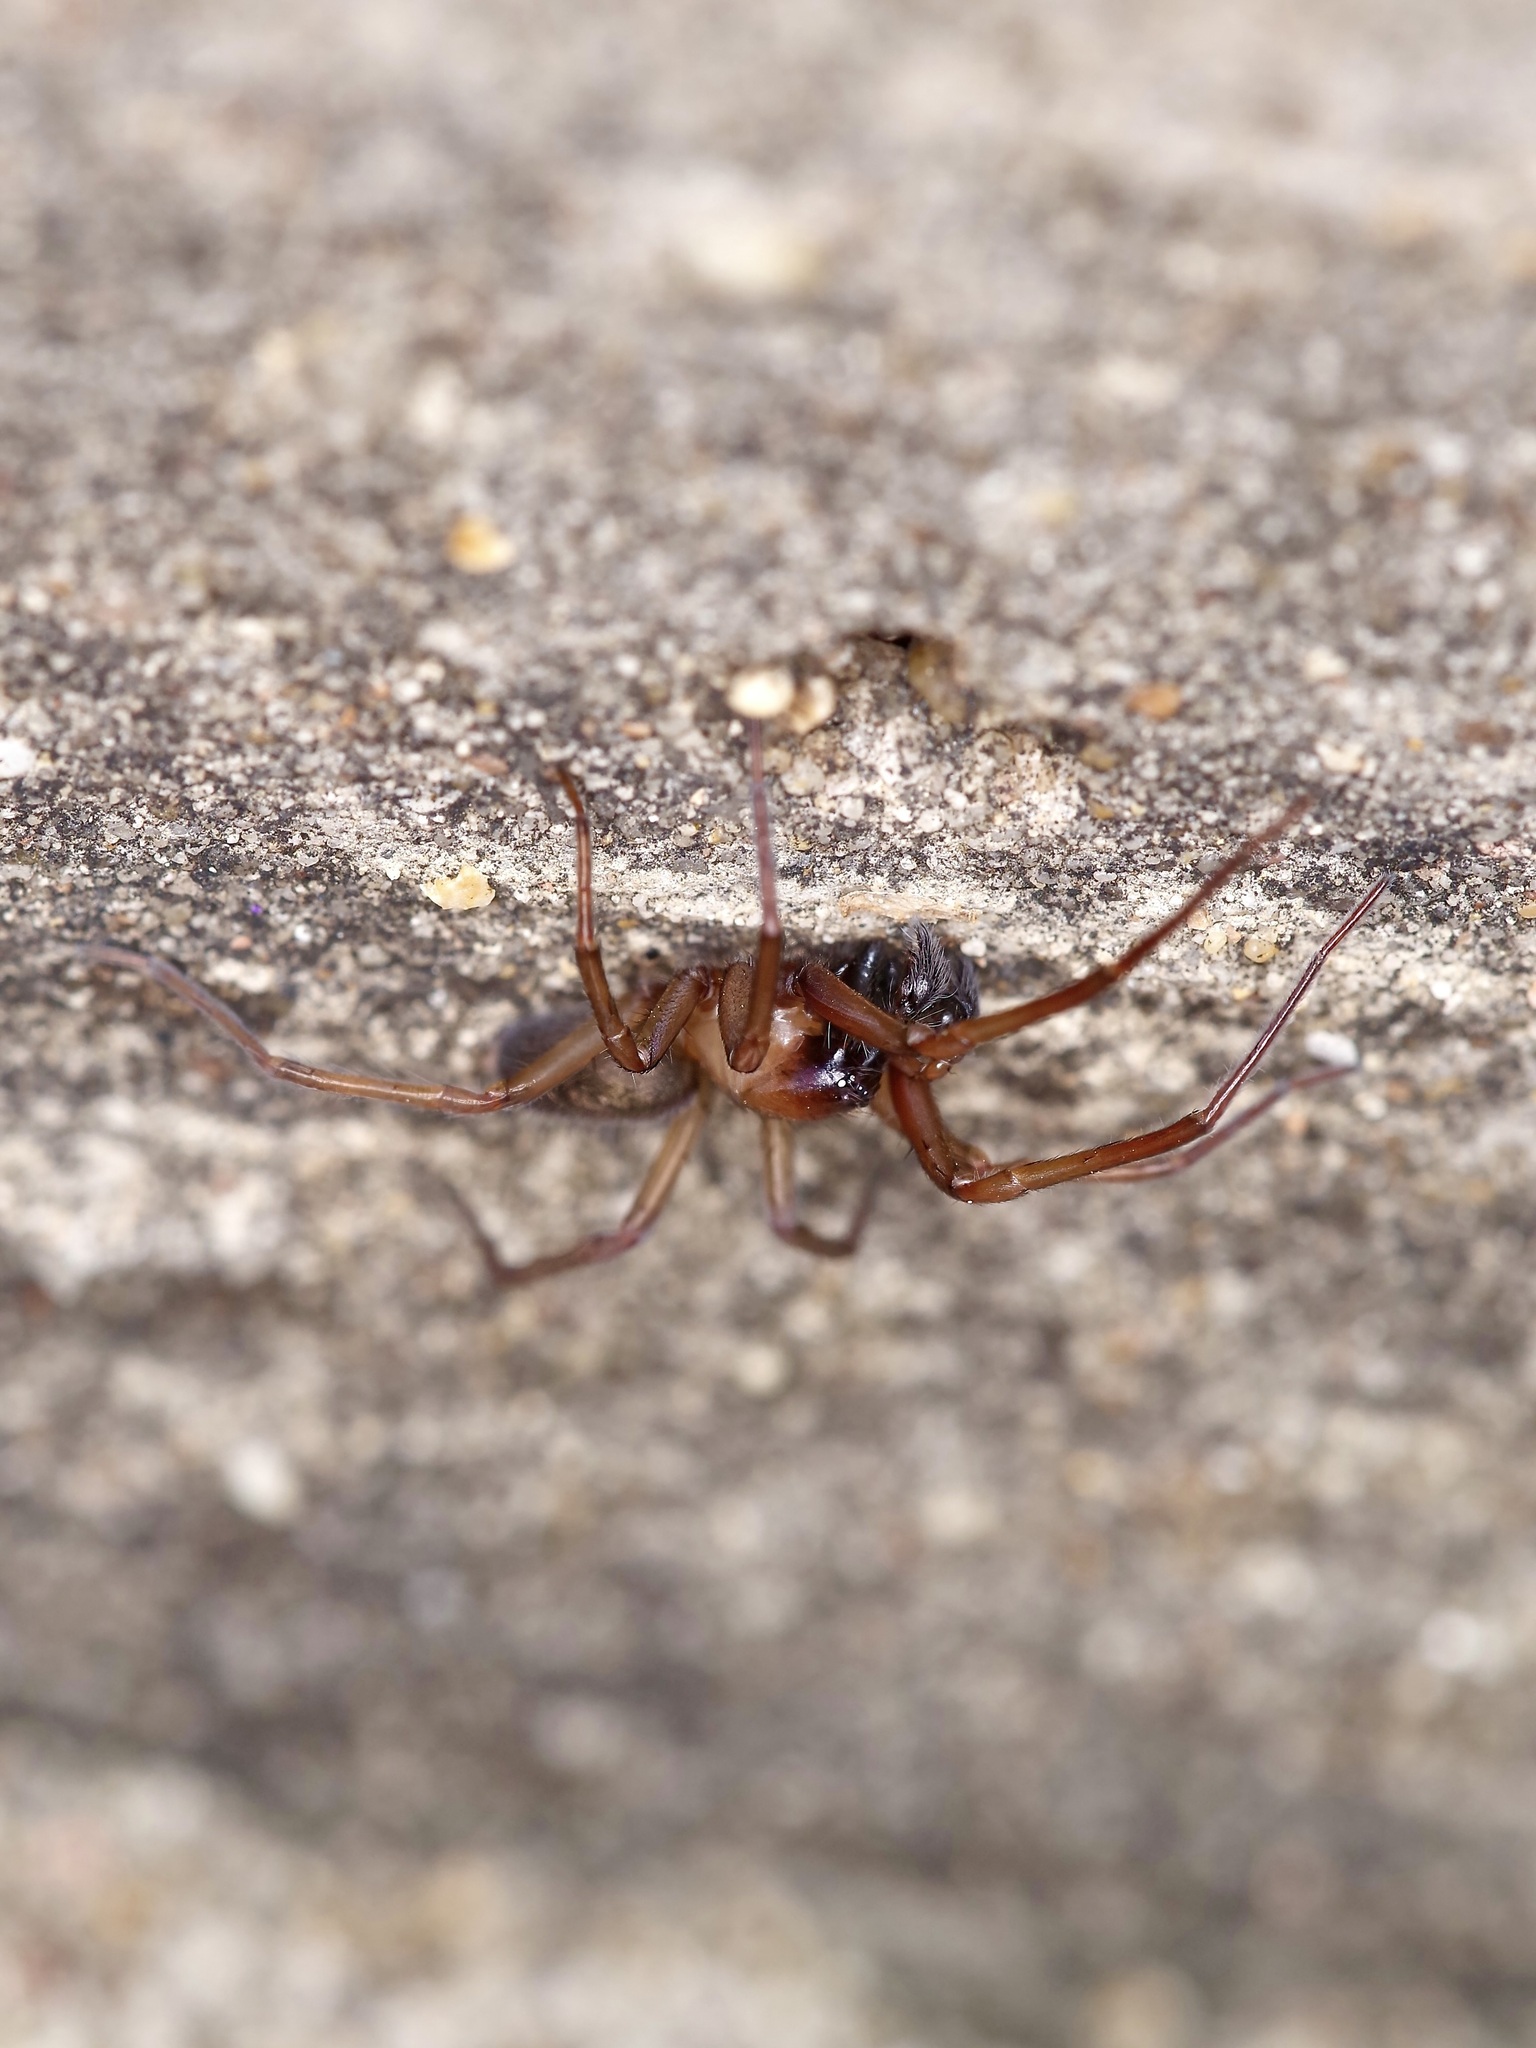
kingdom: Animalia
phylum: Arthropoda
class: Arachnida
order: Araneae
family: Desidae
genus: Metaltella
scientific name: Metaltella simoni
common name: Cribellate spider
